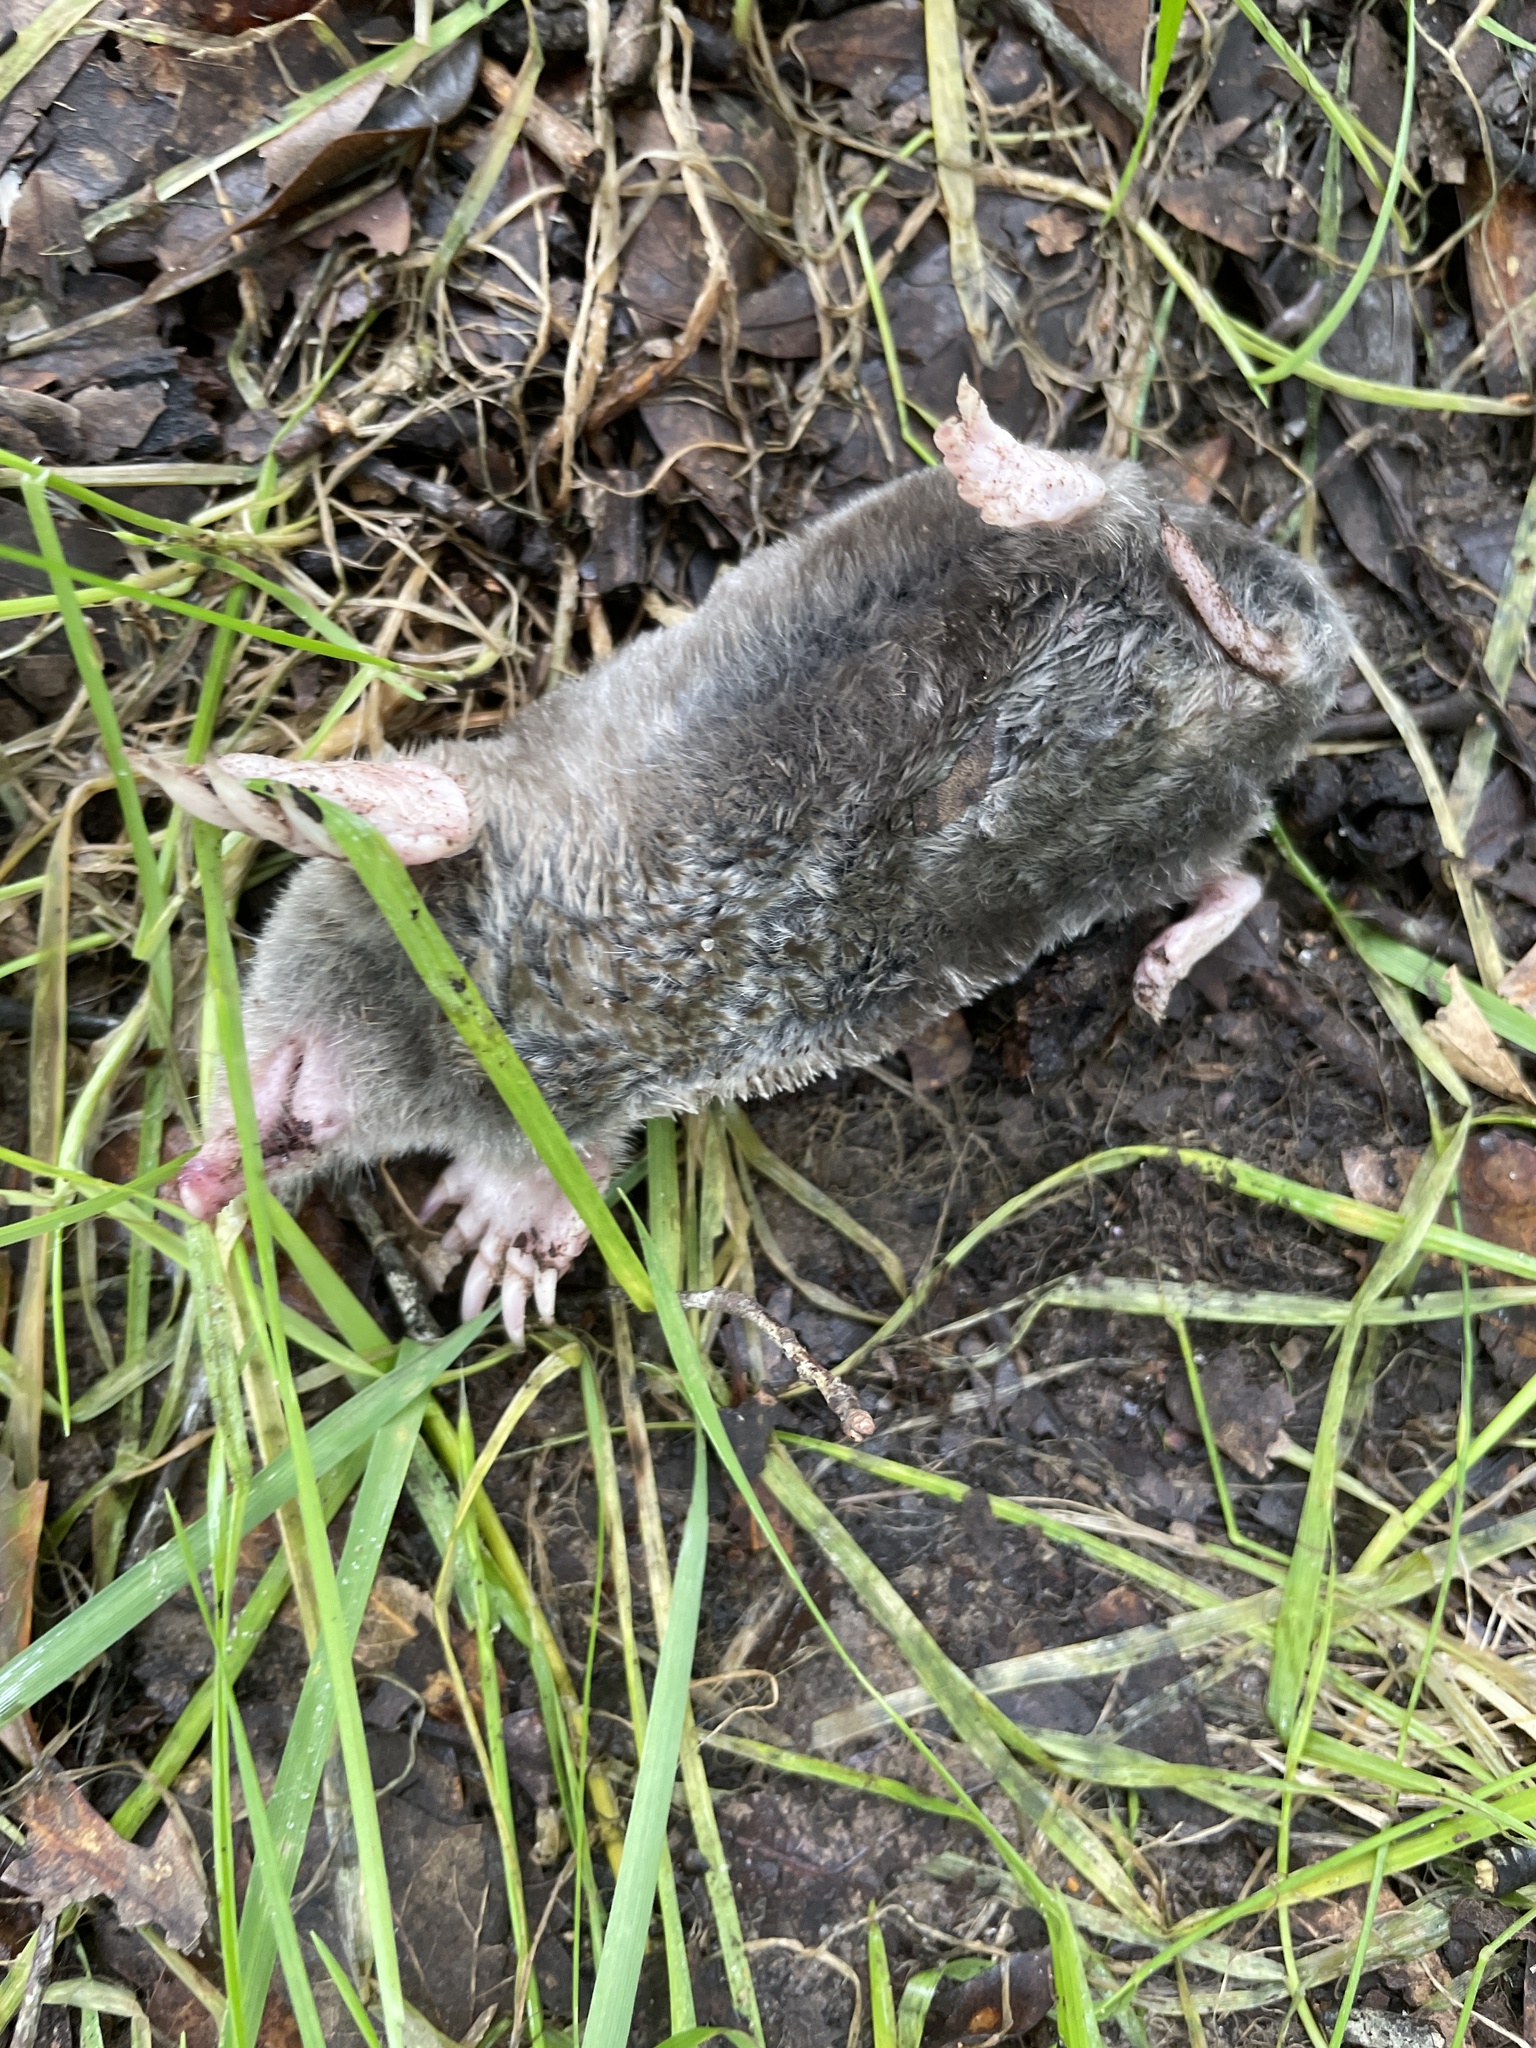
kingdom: Animalia
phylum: Chordata
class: Mammalia
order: Soricomorpha
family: Talpidae
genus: Scalopus
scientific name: Scalopus aquaticus
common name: Eastern mole
